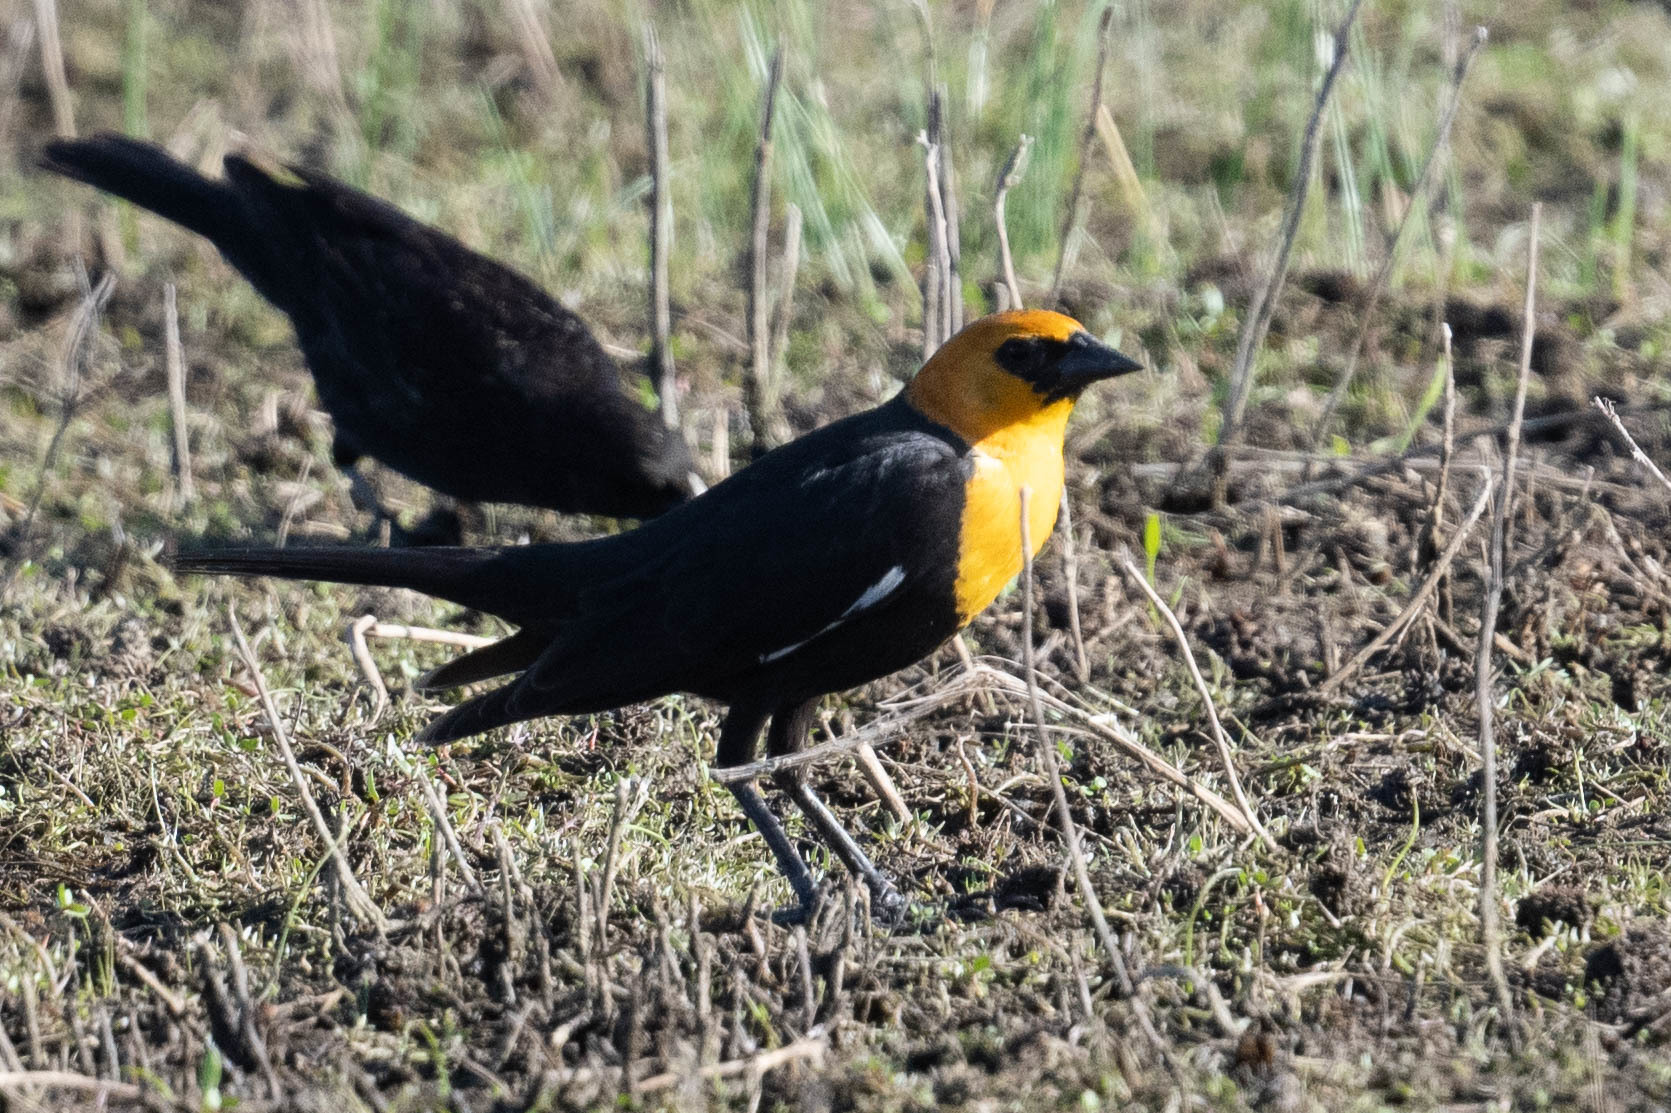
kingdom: Animalia
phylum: Chordata
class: Aves
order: Passeriformes
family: Icteridae
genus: Xanthocephalus
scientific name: Xanthocephalus xanthocephalus
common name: Yellow-headed blackbird
